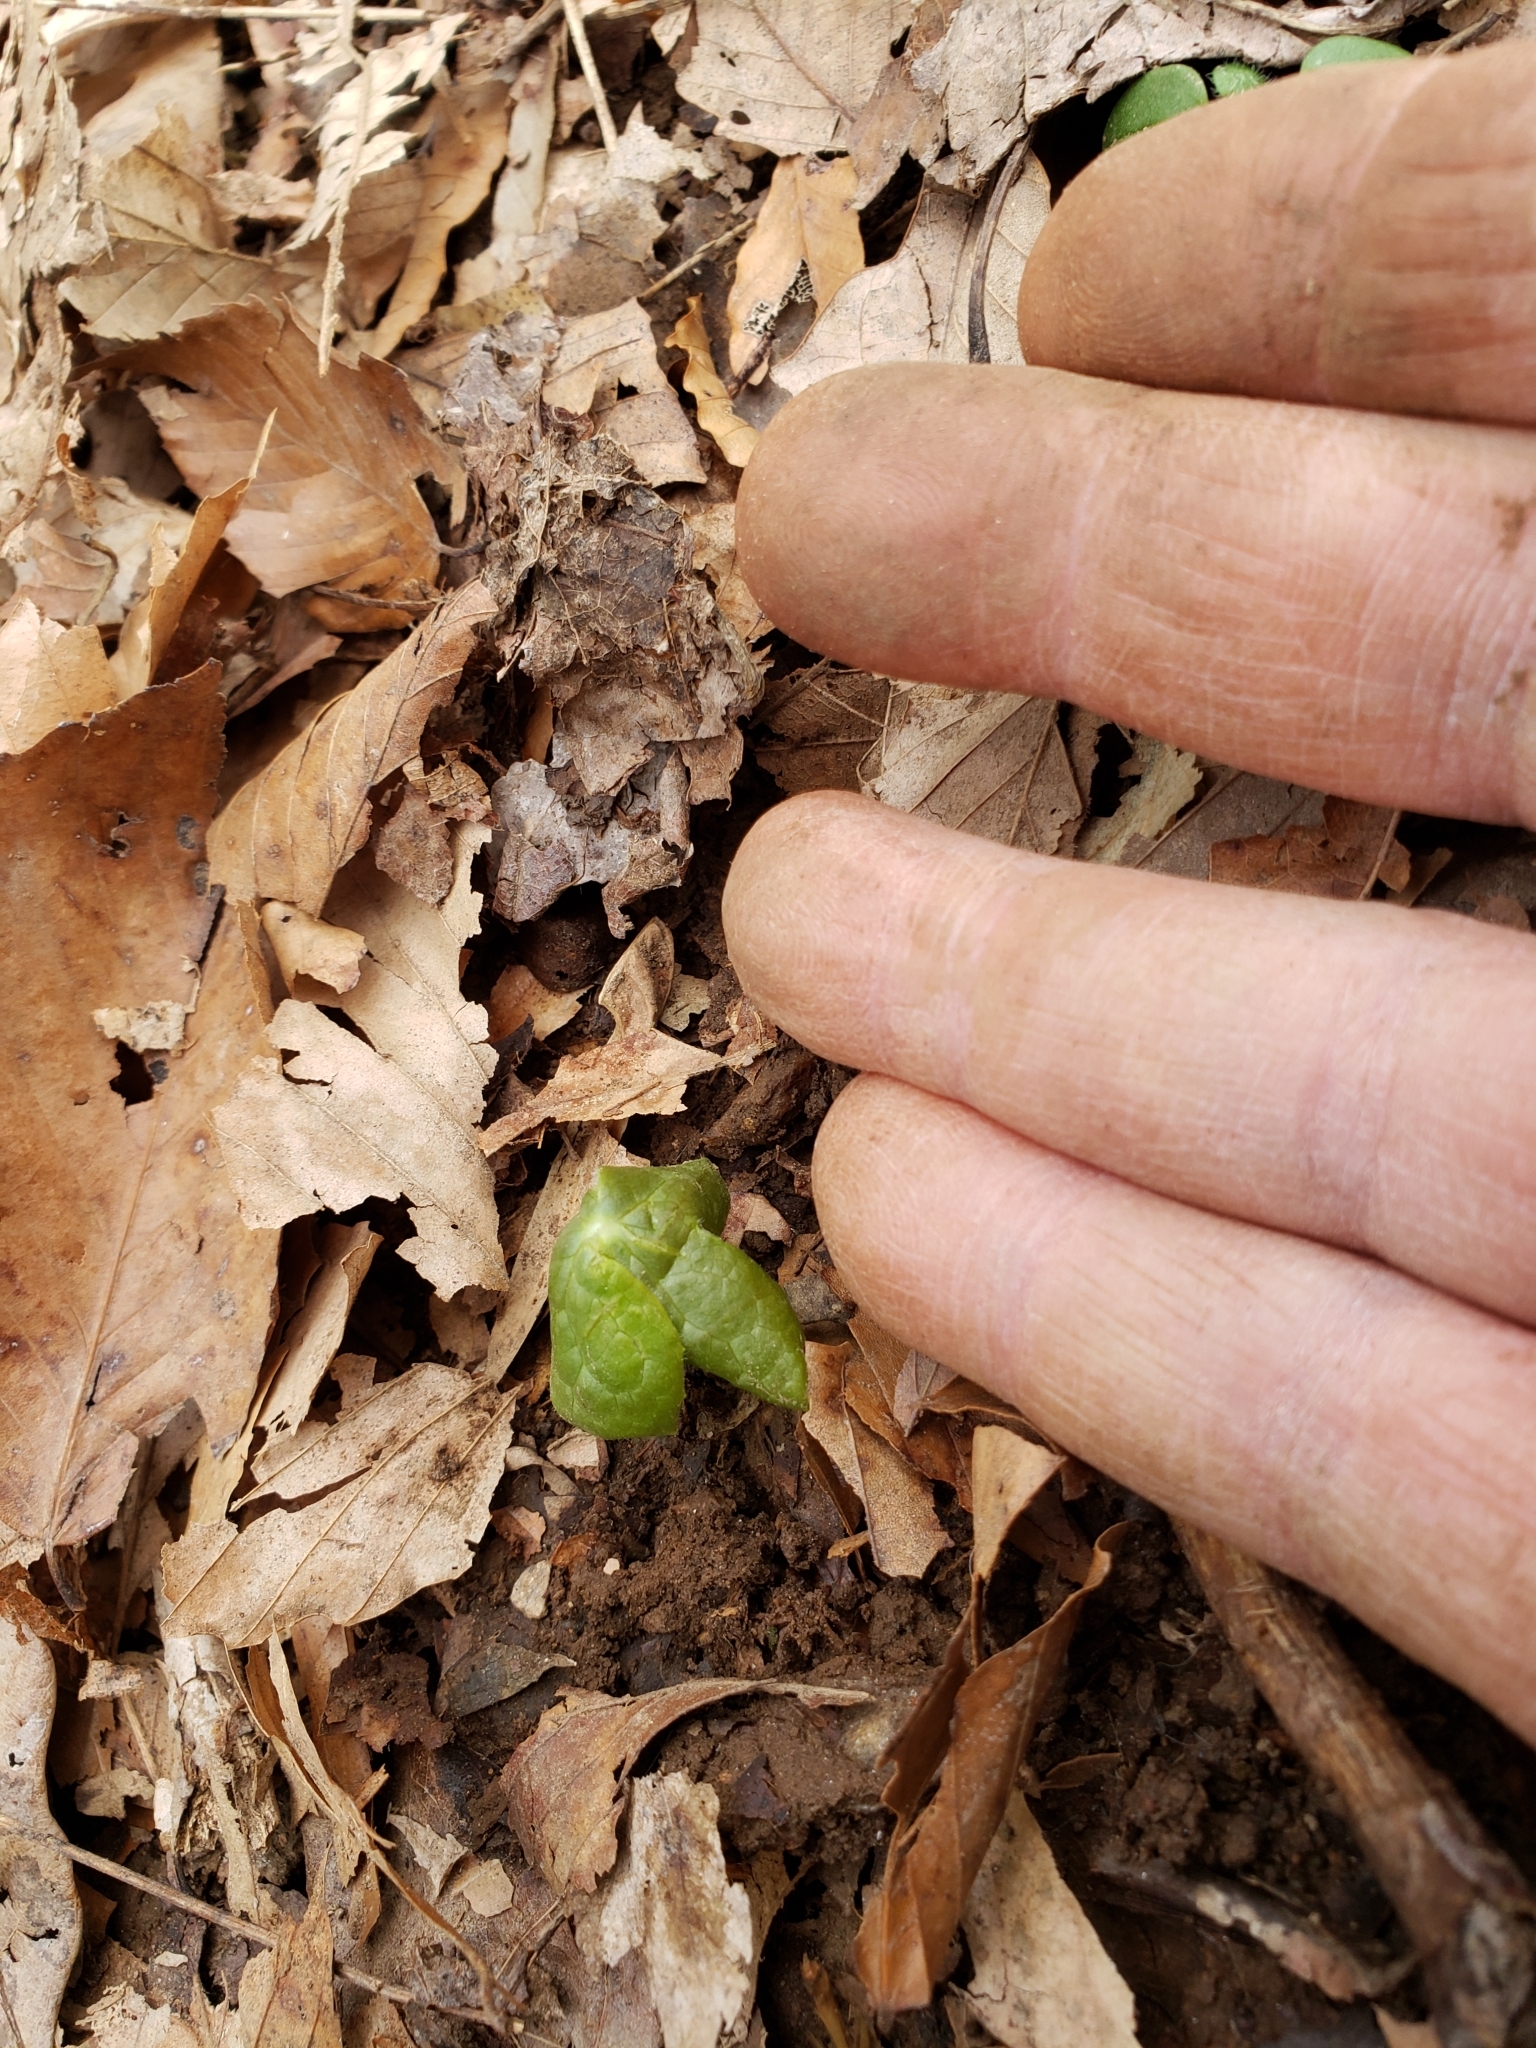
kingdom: Plantae
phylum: Tracheophyta
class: Magnoliopsida
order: Ranunculales
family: Berberidaceae
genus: Podophyllum
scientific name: Podophyllum peltatum
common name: Wild mandrake
